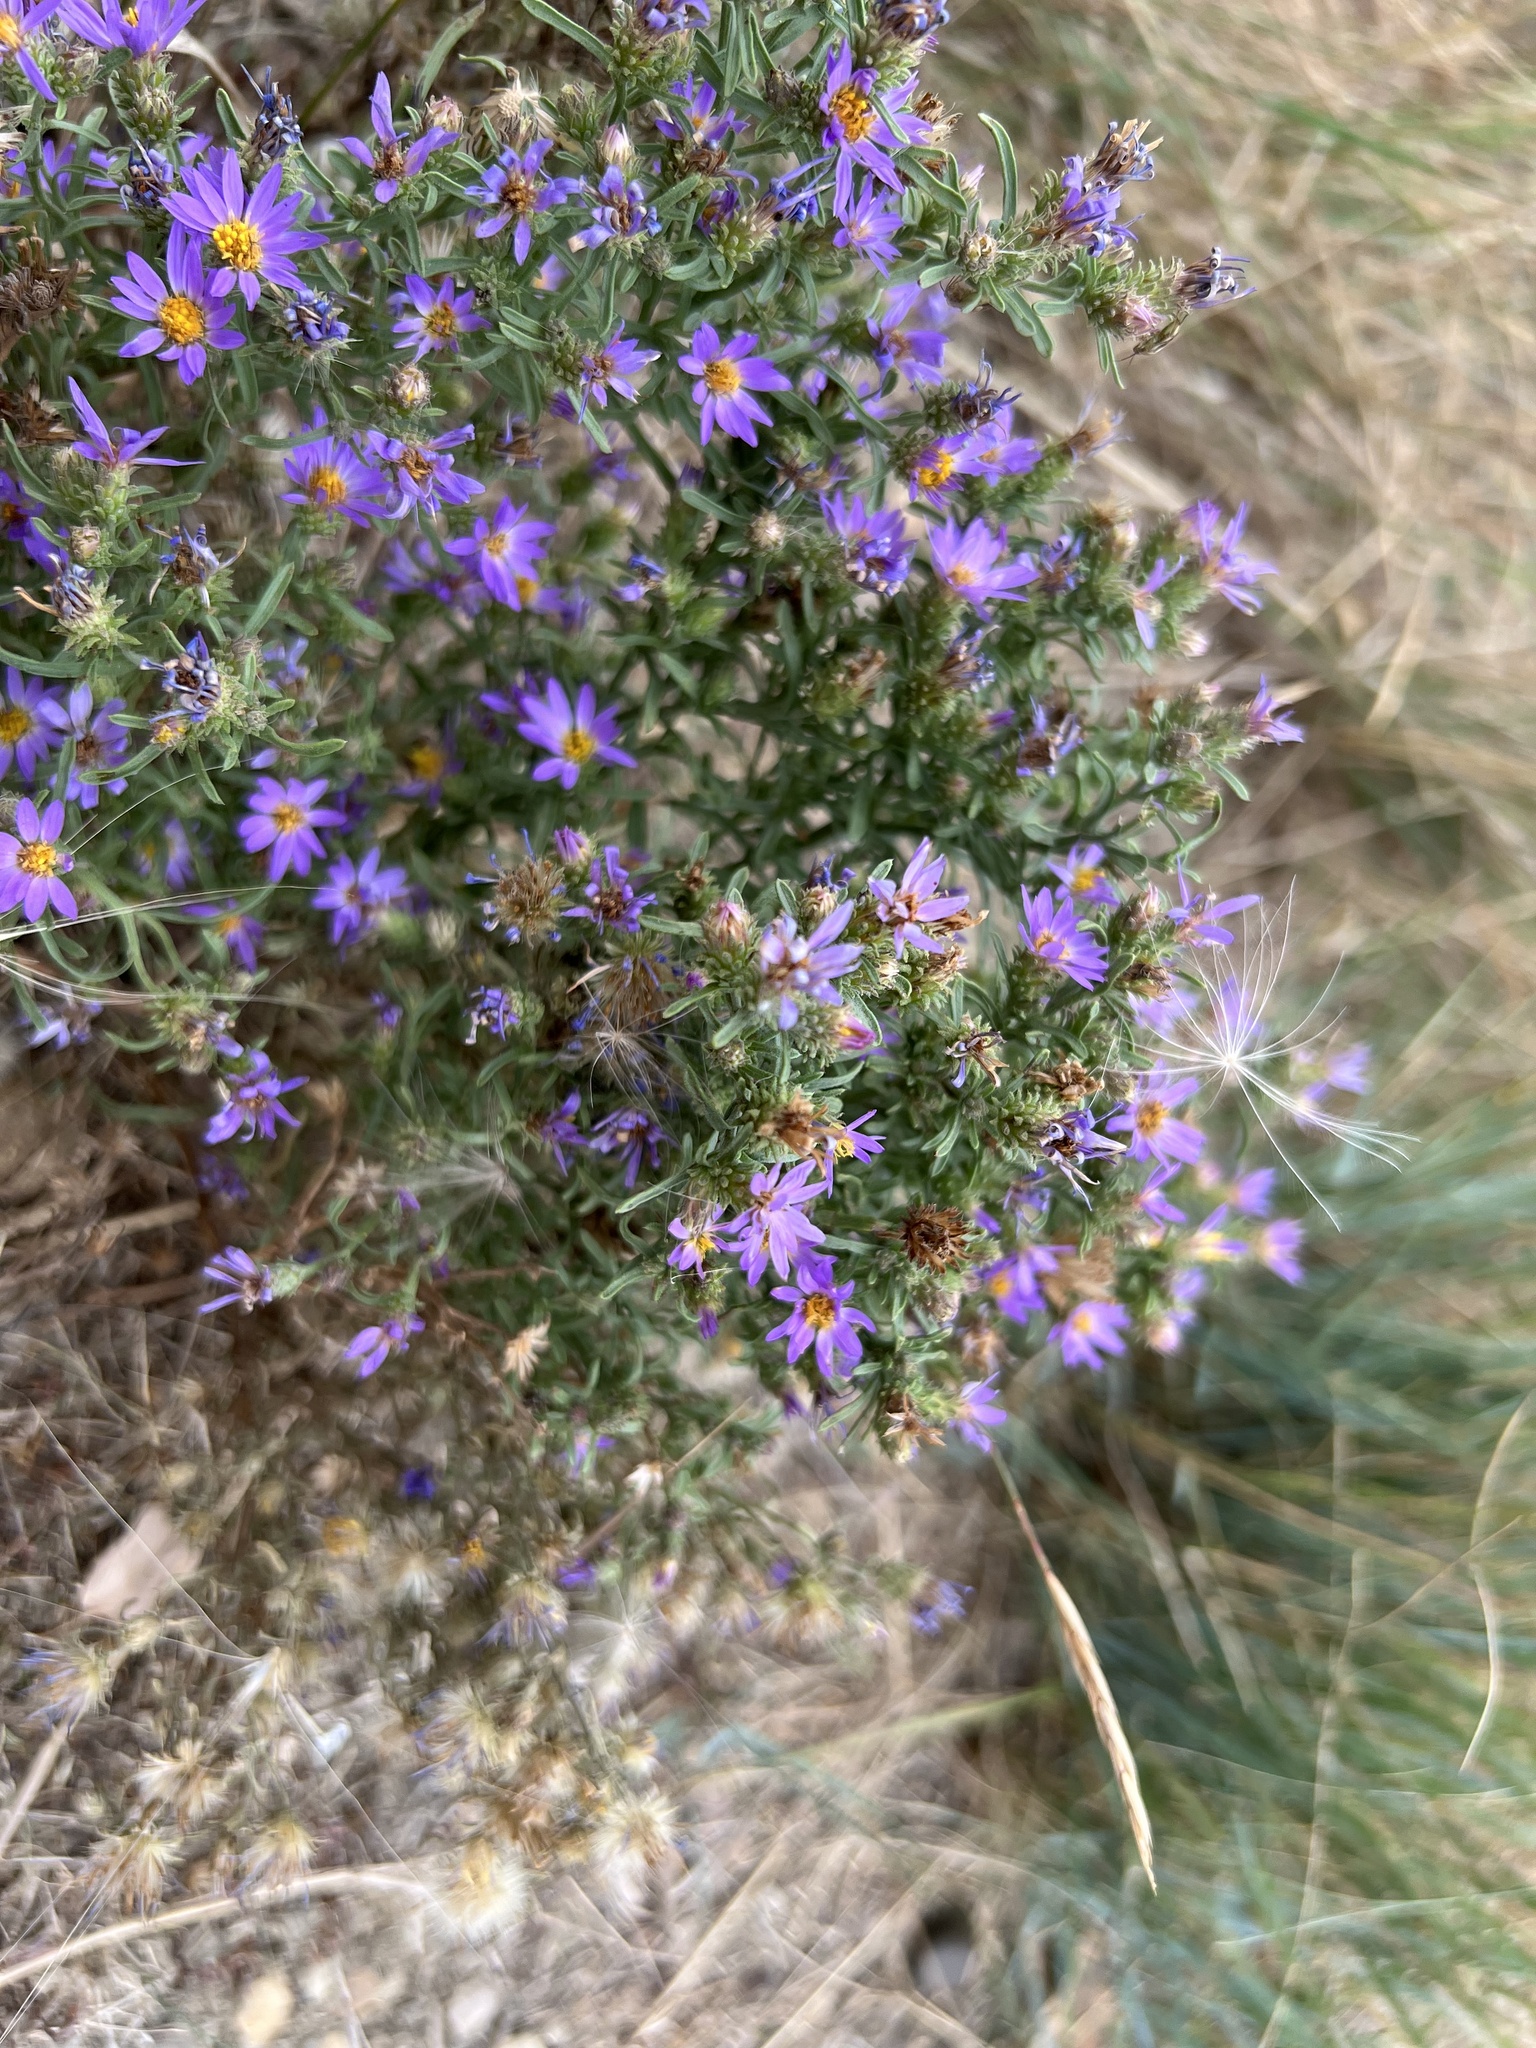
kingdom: Plantae
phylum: Tracheophyta
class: Magnoliopsida
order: Asterales
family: Asteraceae
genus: Dieteria
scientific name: Dieteria canescens
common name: Hoary-aster
